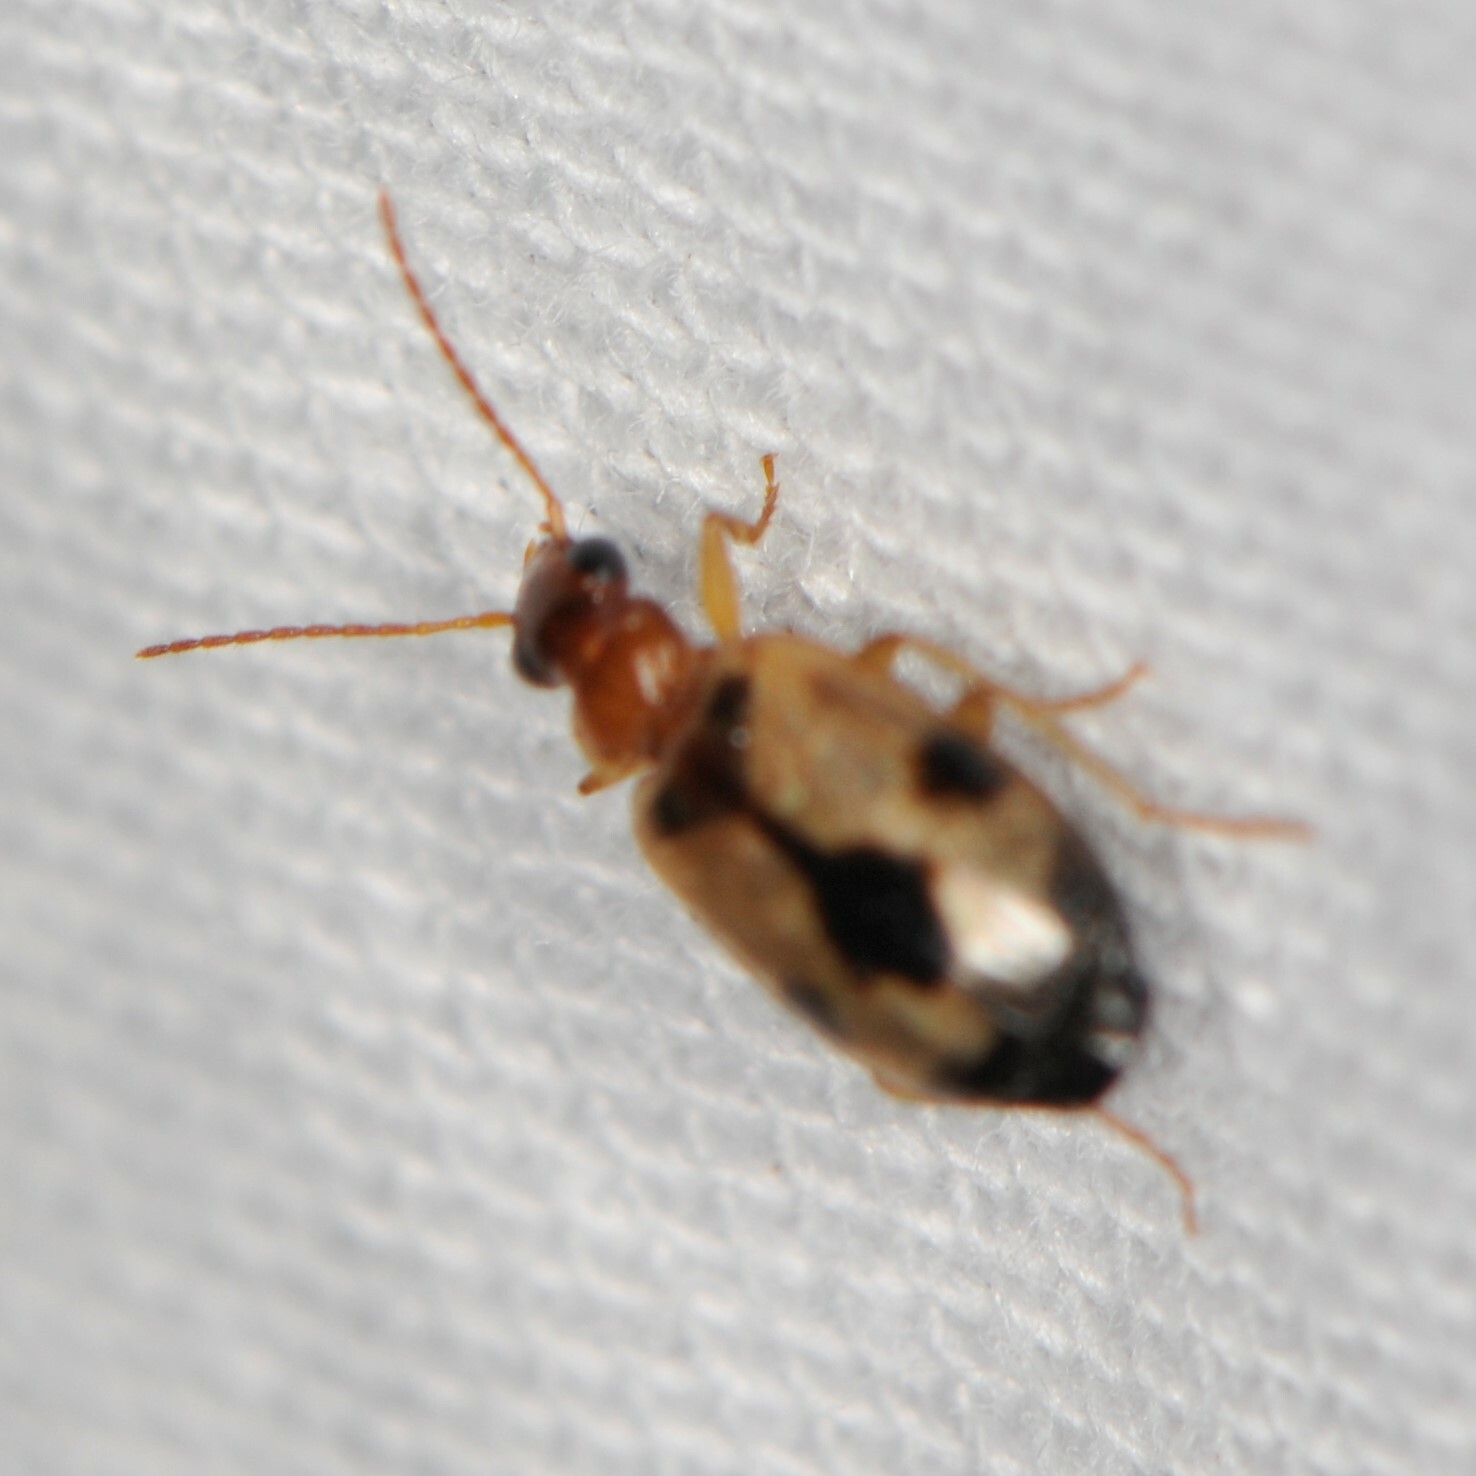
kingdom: Animalia
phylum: Arthropoda
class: Insecta
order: Coleoptera
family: Carabidae
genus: Lebia
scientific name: Lebia guttula
